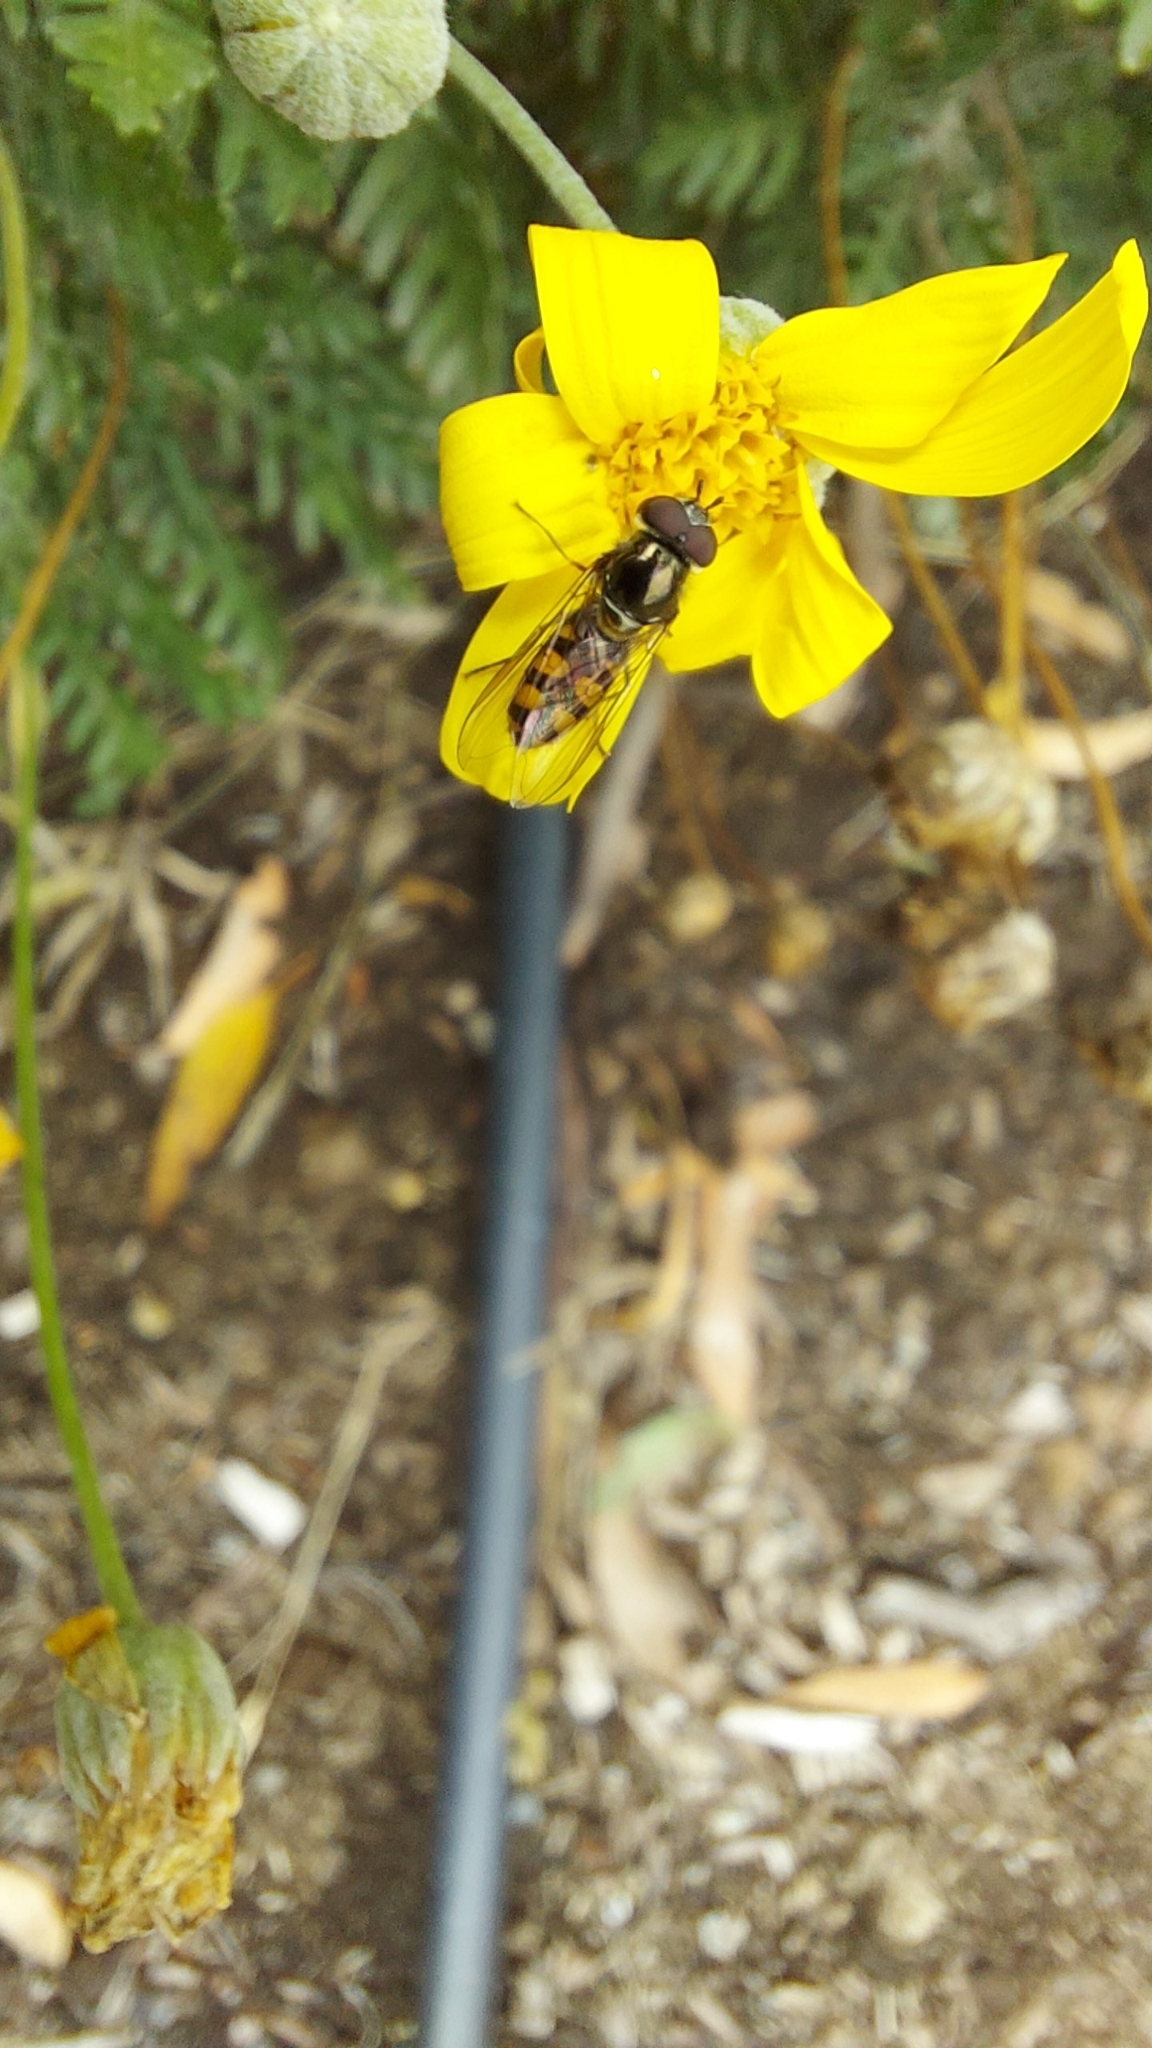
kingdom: Animalia
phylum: Arthropoda
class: Insecta
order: Diptera
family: Syrphidae
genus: Melangyna
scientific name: Melangyna viridiceps
